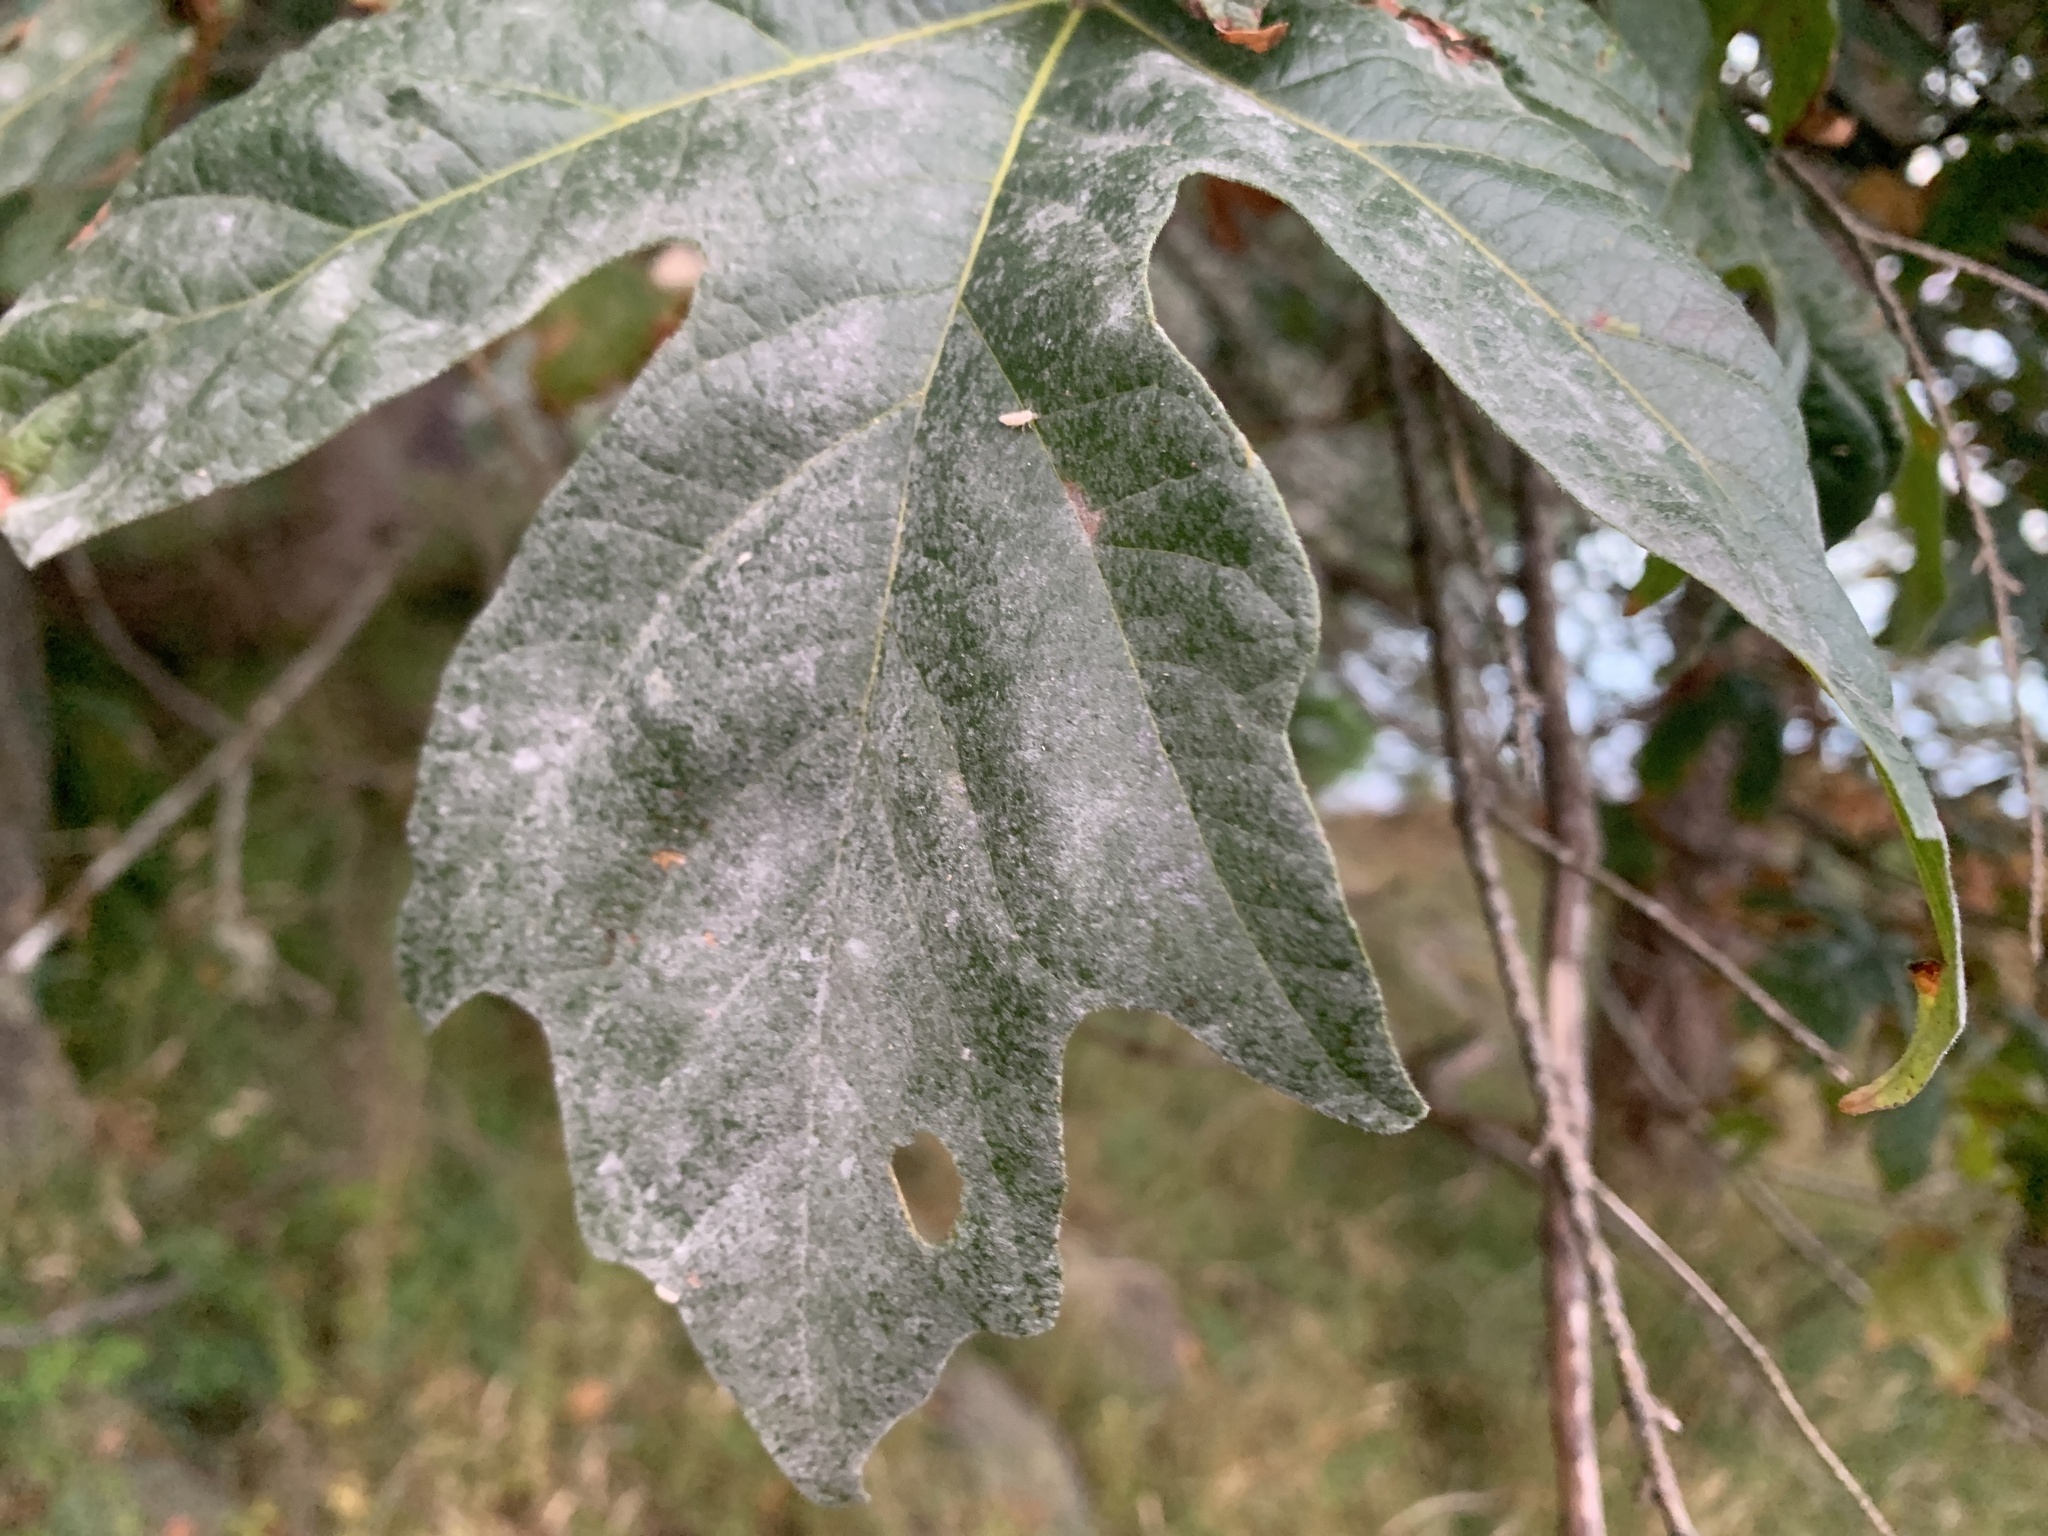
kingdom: Plantae
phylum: Tracheophyta
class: Magnoliopsida
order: Sapindales
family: Sapindaceae
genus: Acer
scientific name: Acer macrophyllum
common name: Oregon maple
